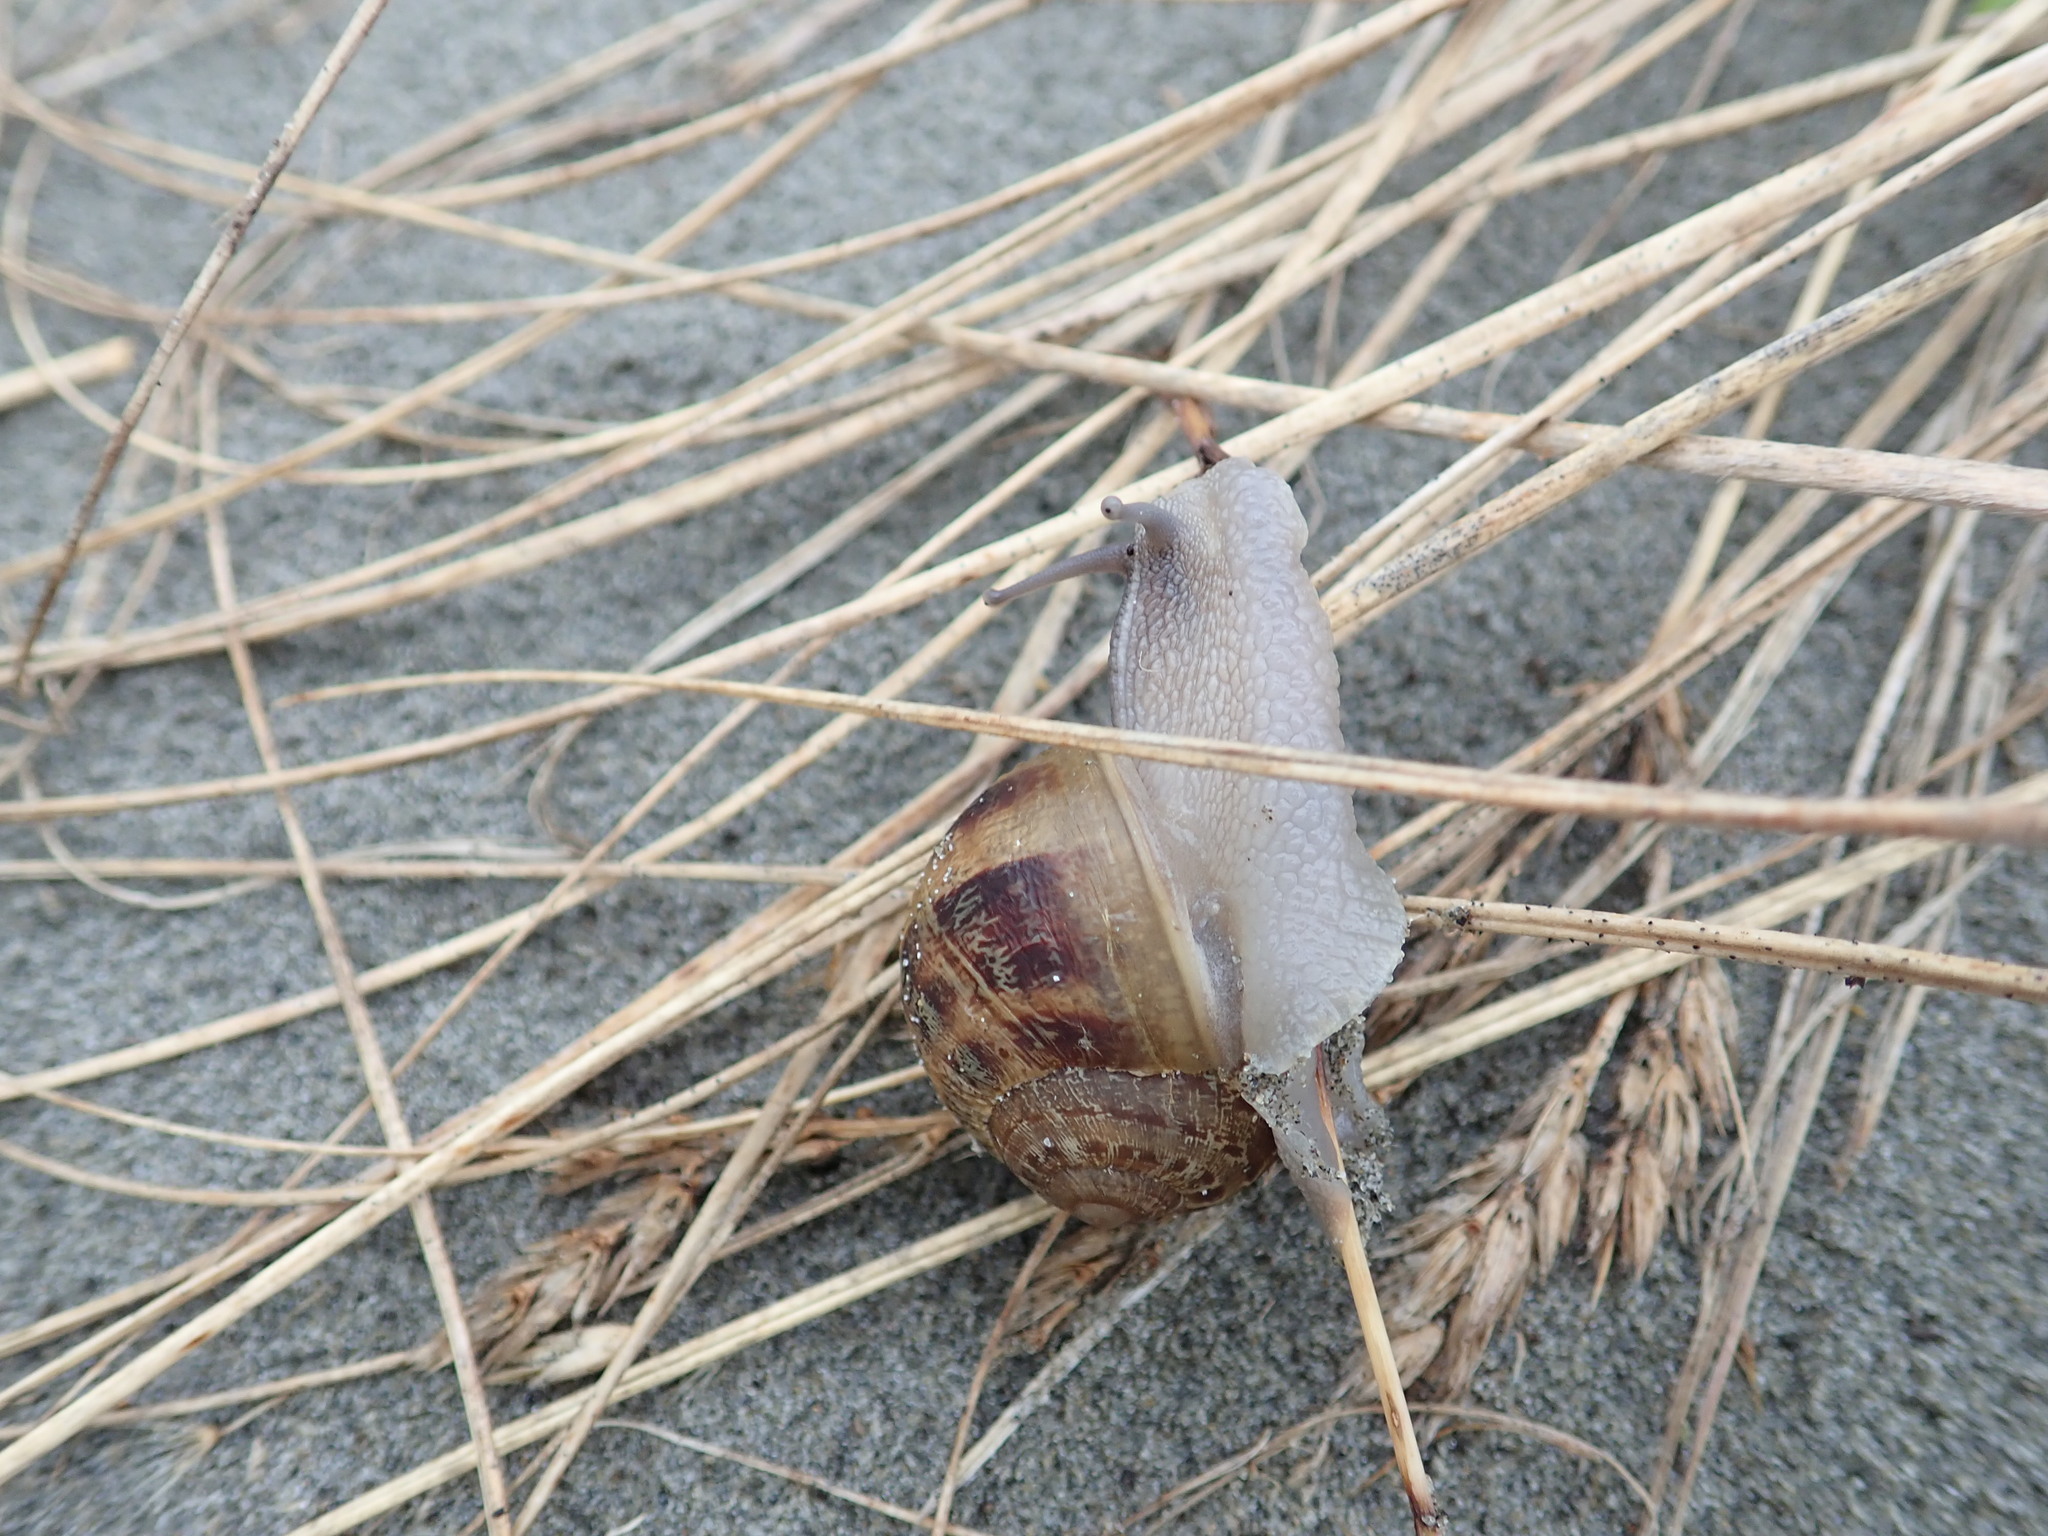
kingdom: Animalia
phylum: Mollusca
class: Gastropoda
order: Stylommatophora
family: Helicidae
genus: Cornu
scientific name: Cornu aspersum
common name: Brown garden snail
